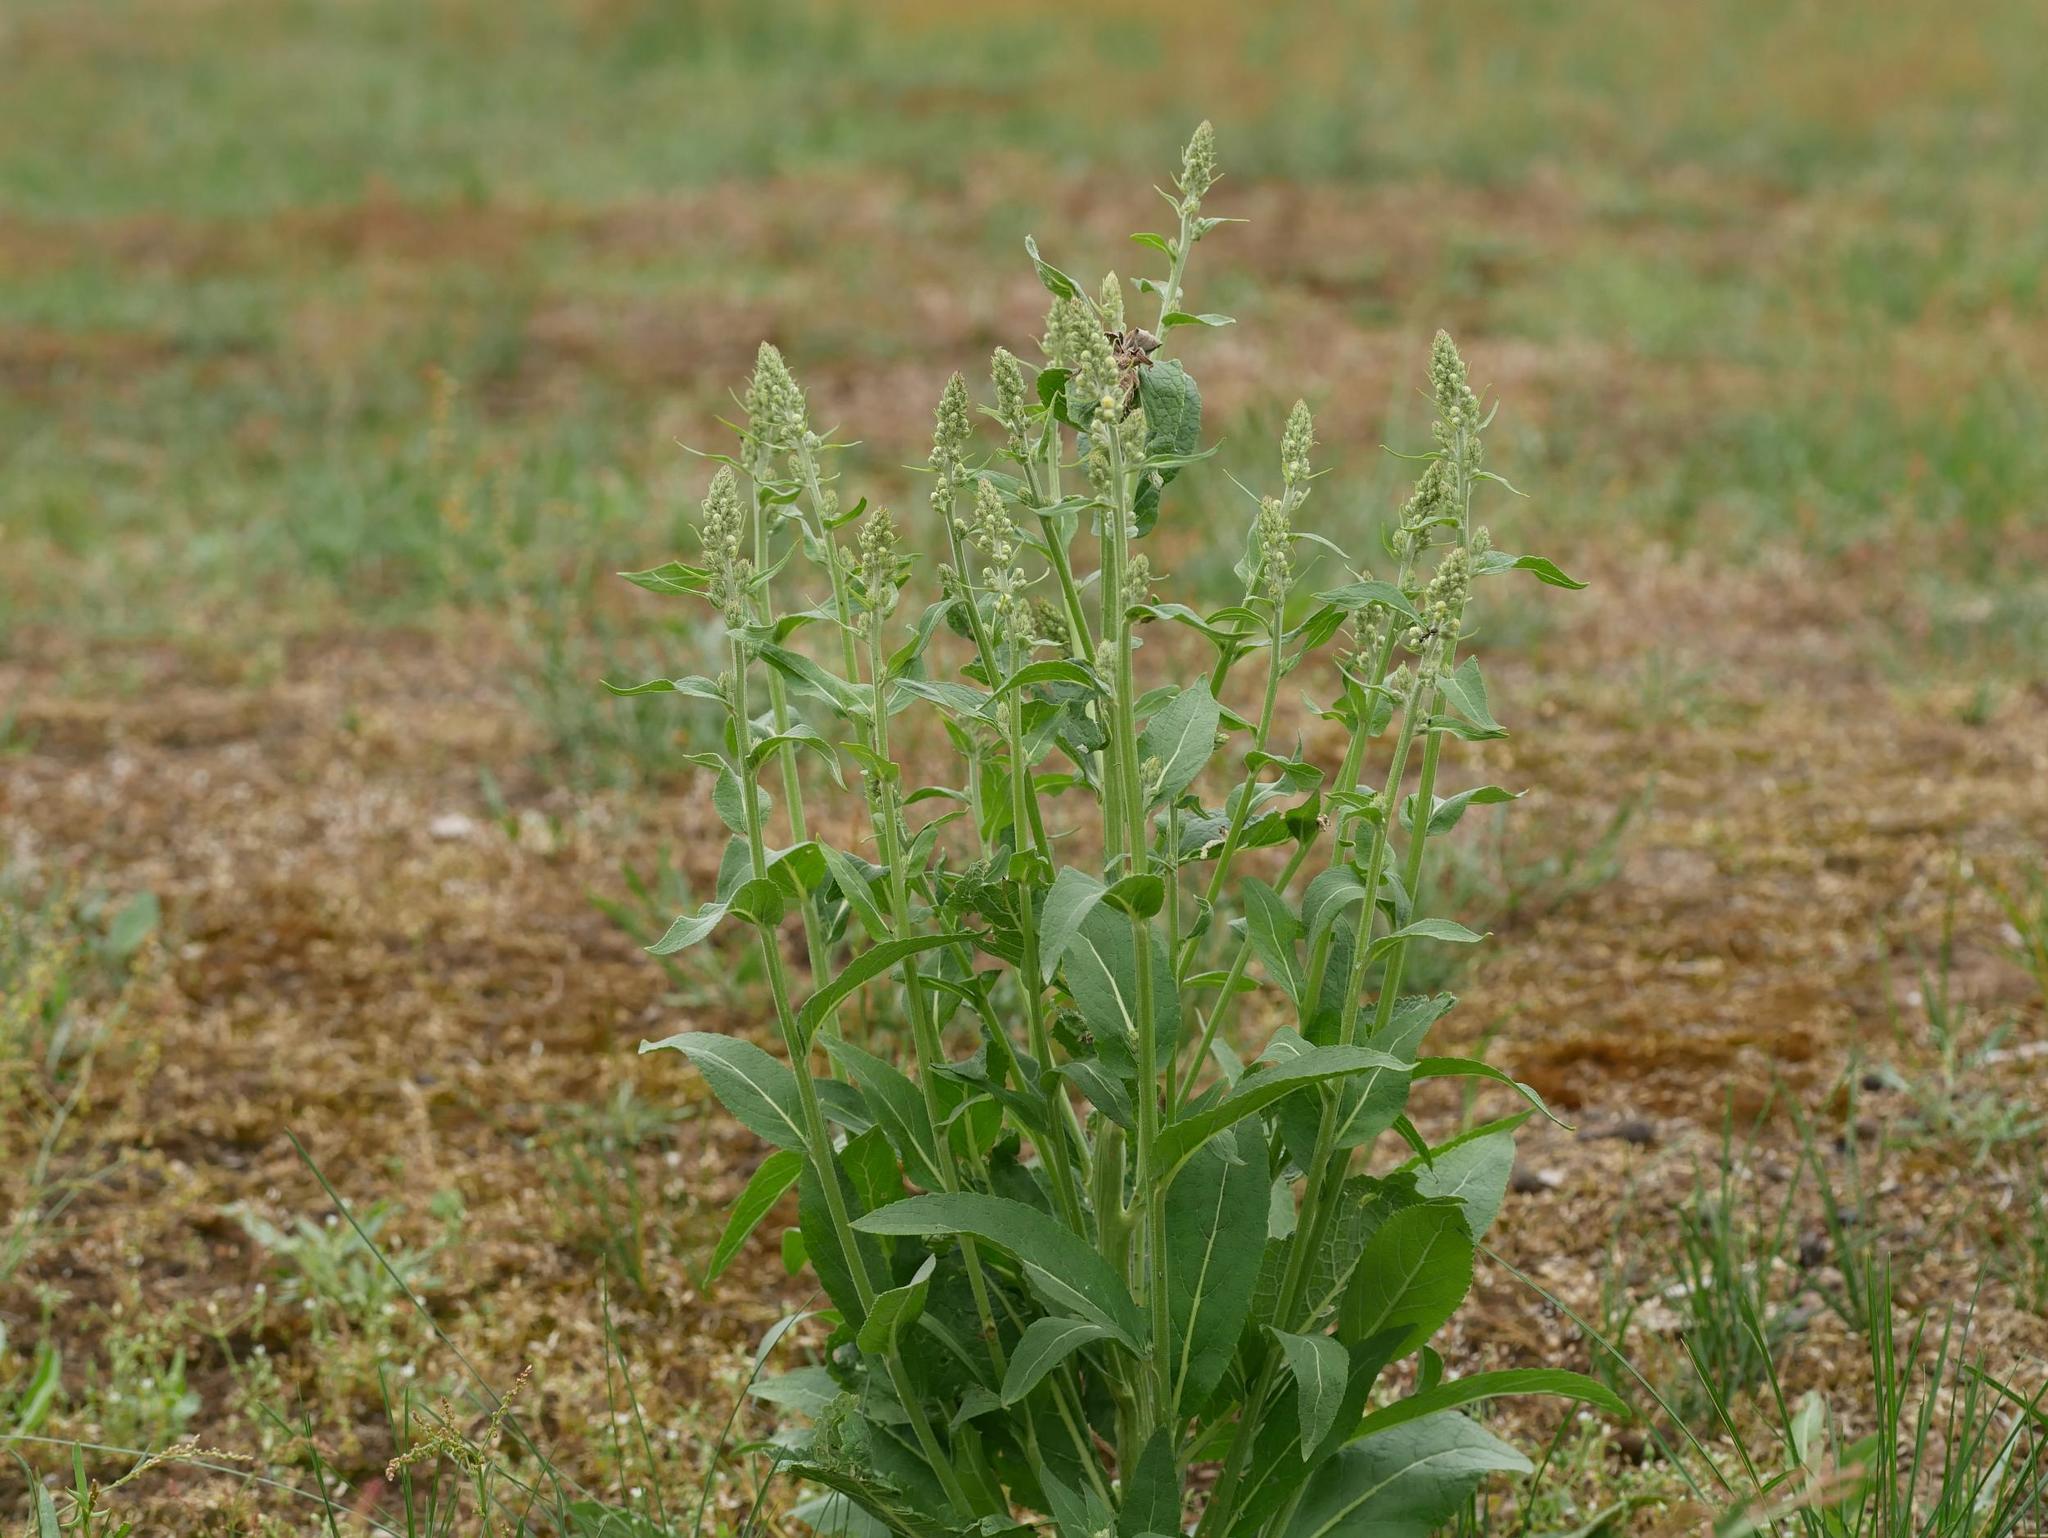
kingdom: Plantae
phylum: Tracheophyta
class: Magnoliopsida
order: Lamiales
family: Scrophulariaceae
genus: Verbascum
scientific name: Verbascum lychnitis
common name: White mullein
